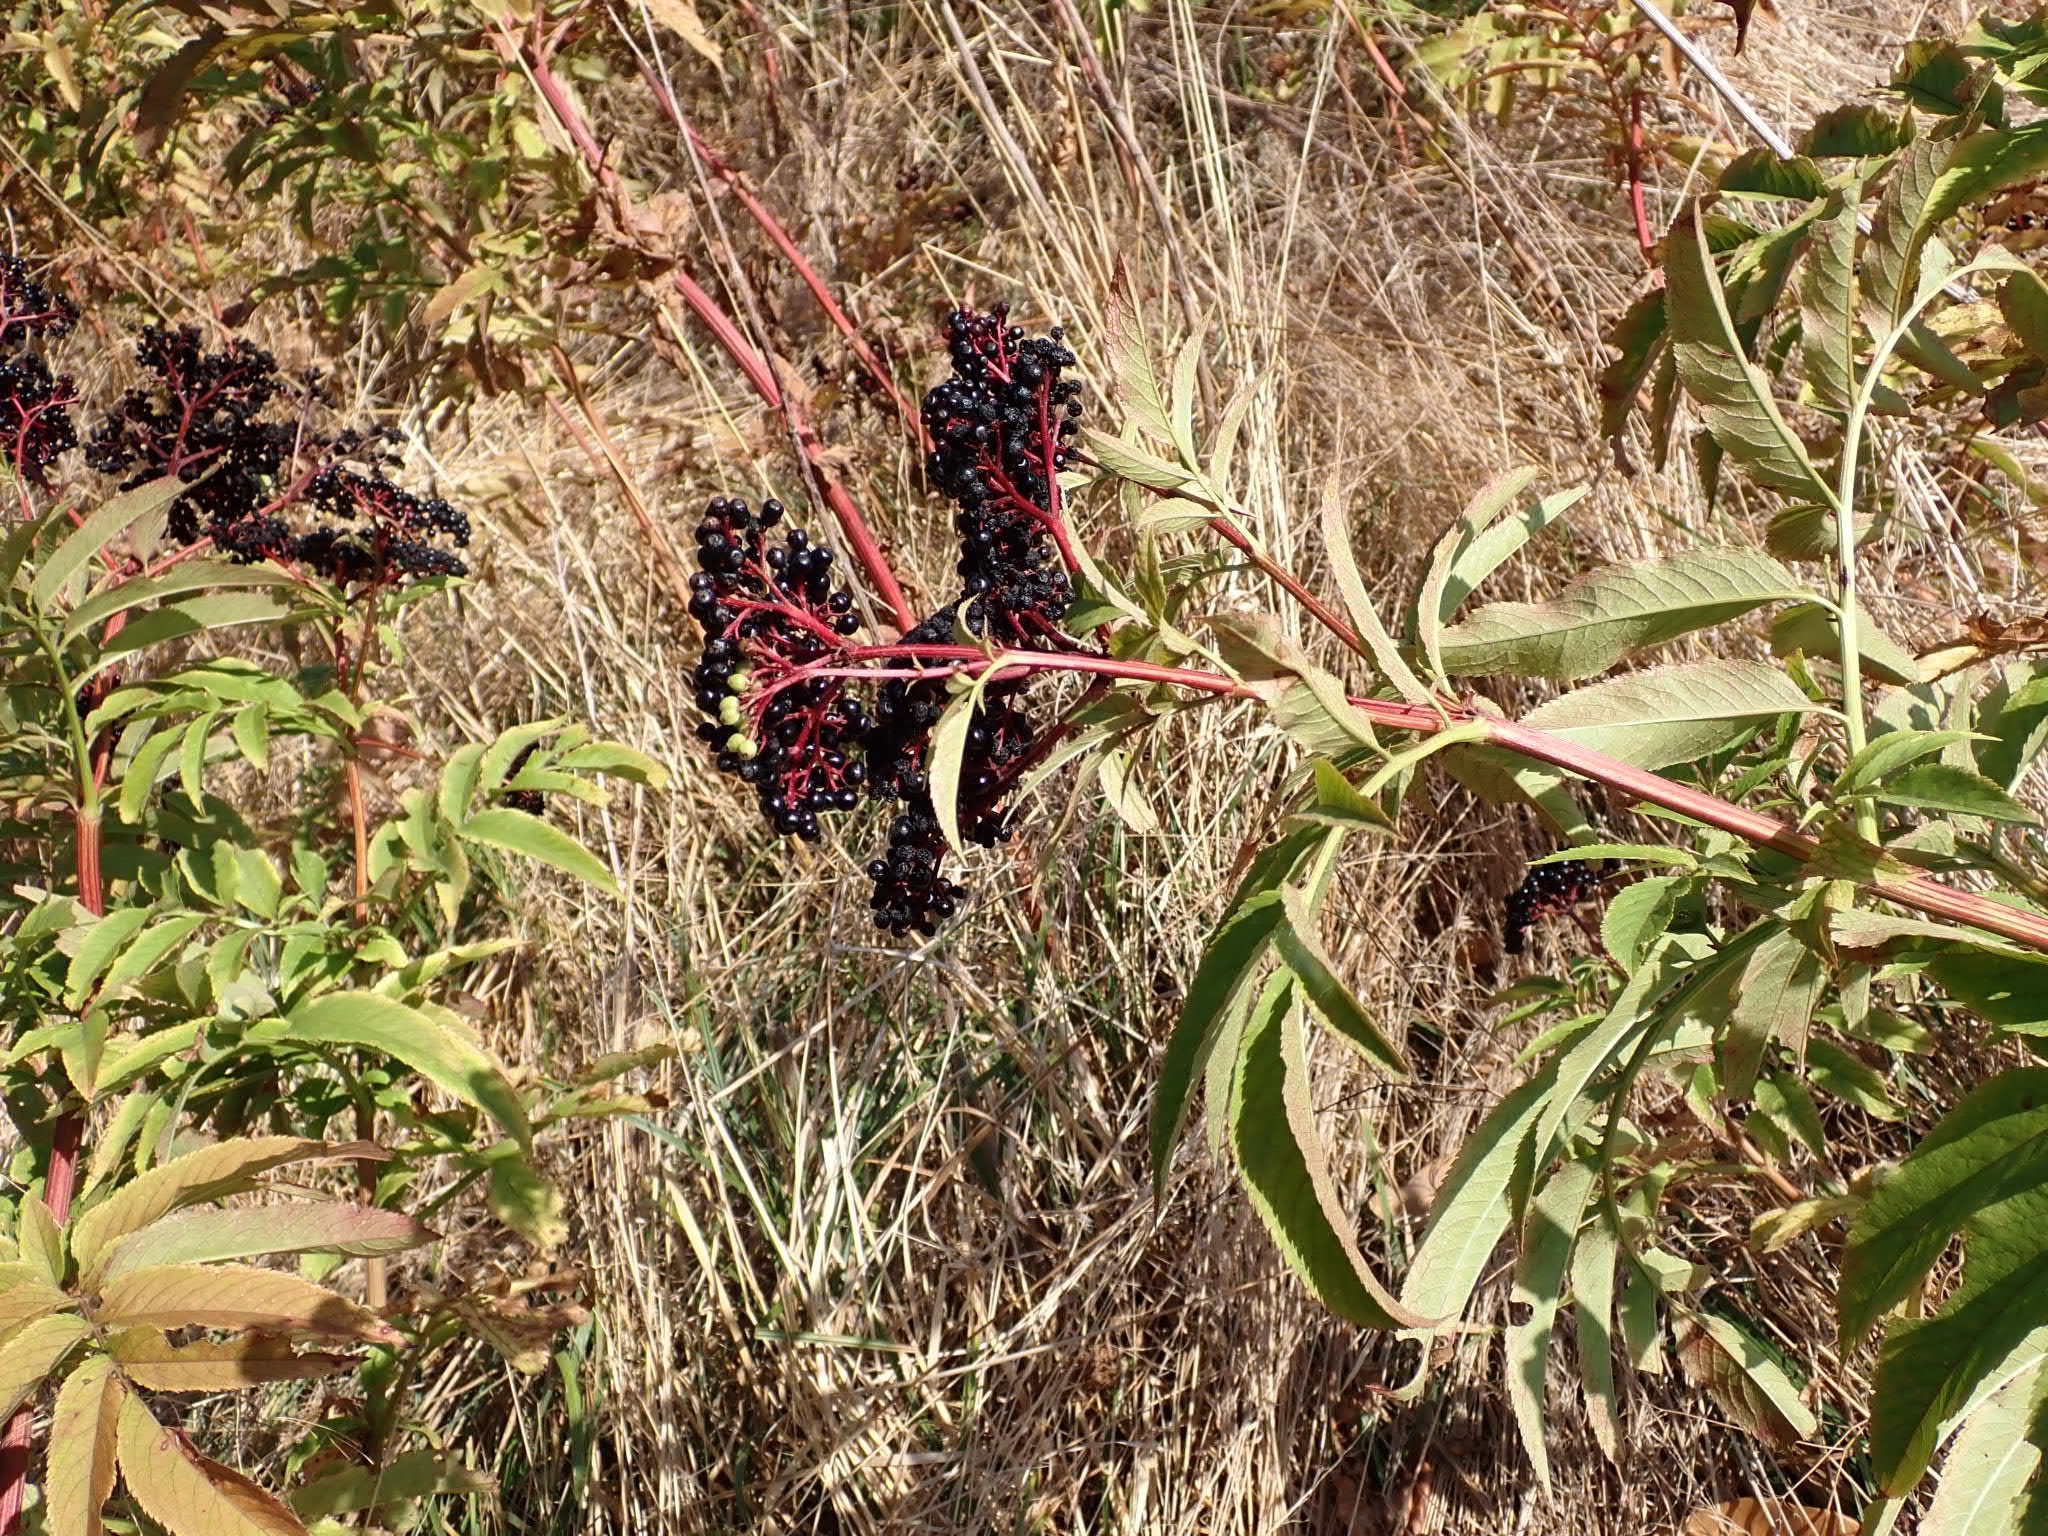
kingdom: Plantae
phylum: Tracheophyta
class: Magnoliopsida
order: Dipsacales
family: Viburnaceae
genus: Sambucus
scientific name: Sambucus ebulus
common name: Dwarf elder
